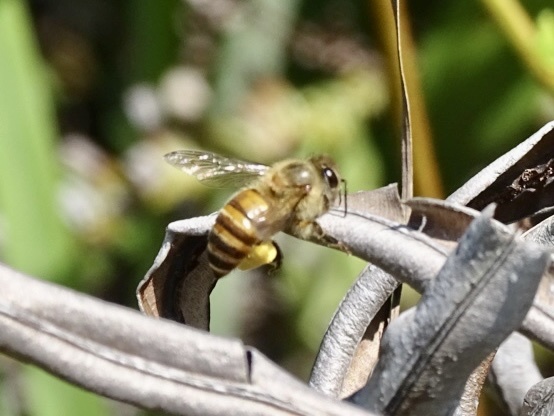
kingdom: Animalia
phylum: Arthropoda
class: Insecta
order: Hymenoptera
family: Apidae
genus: Apis
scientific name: Apis cerana
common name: Honey bee
